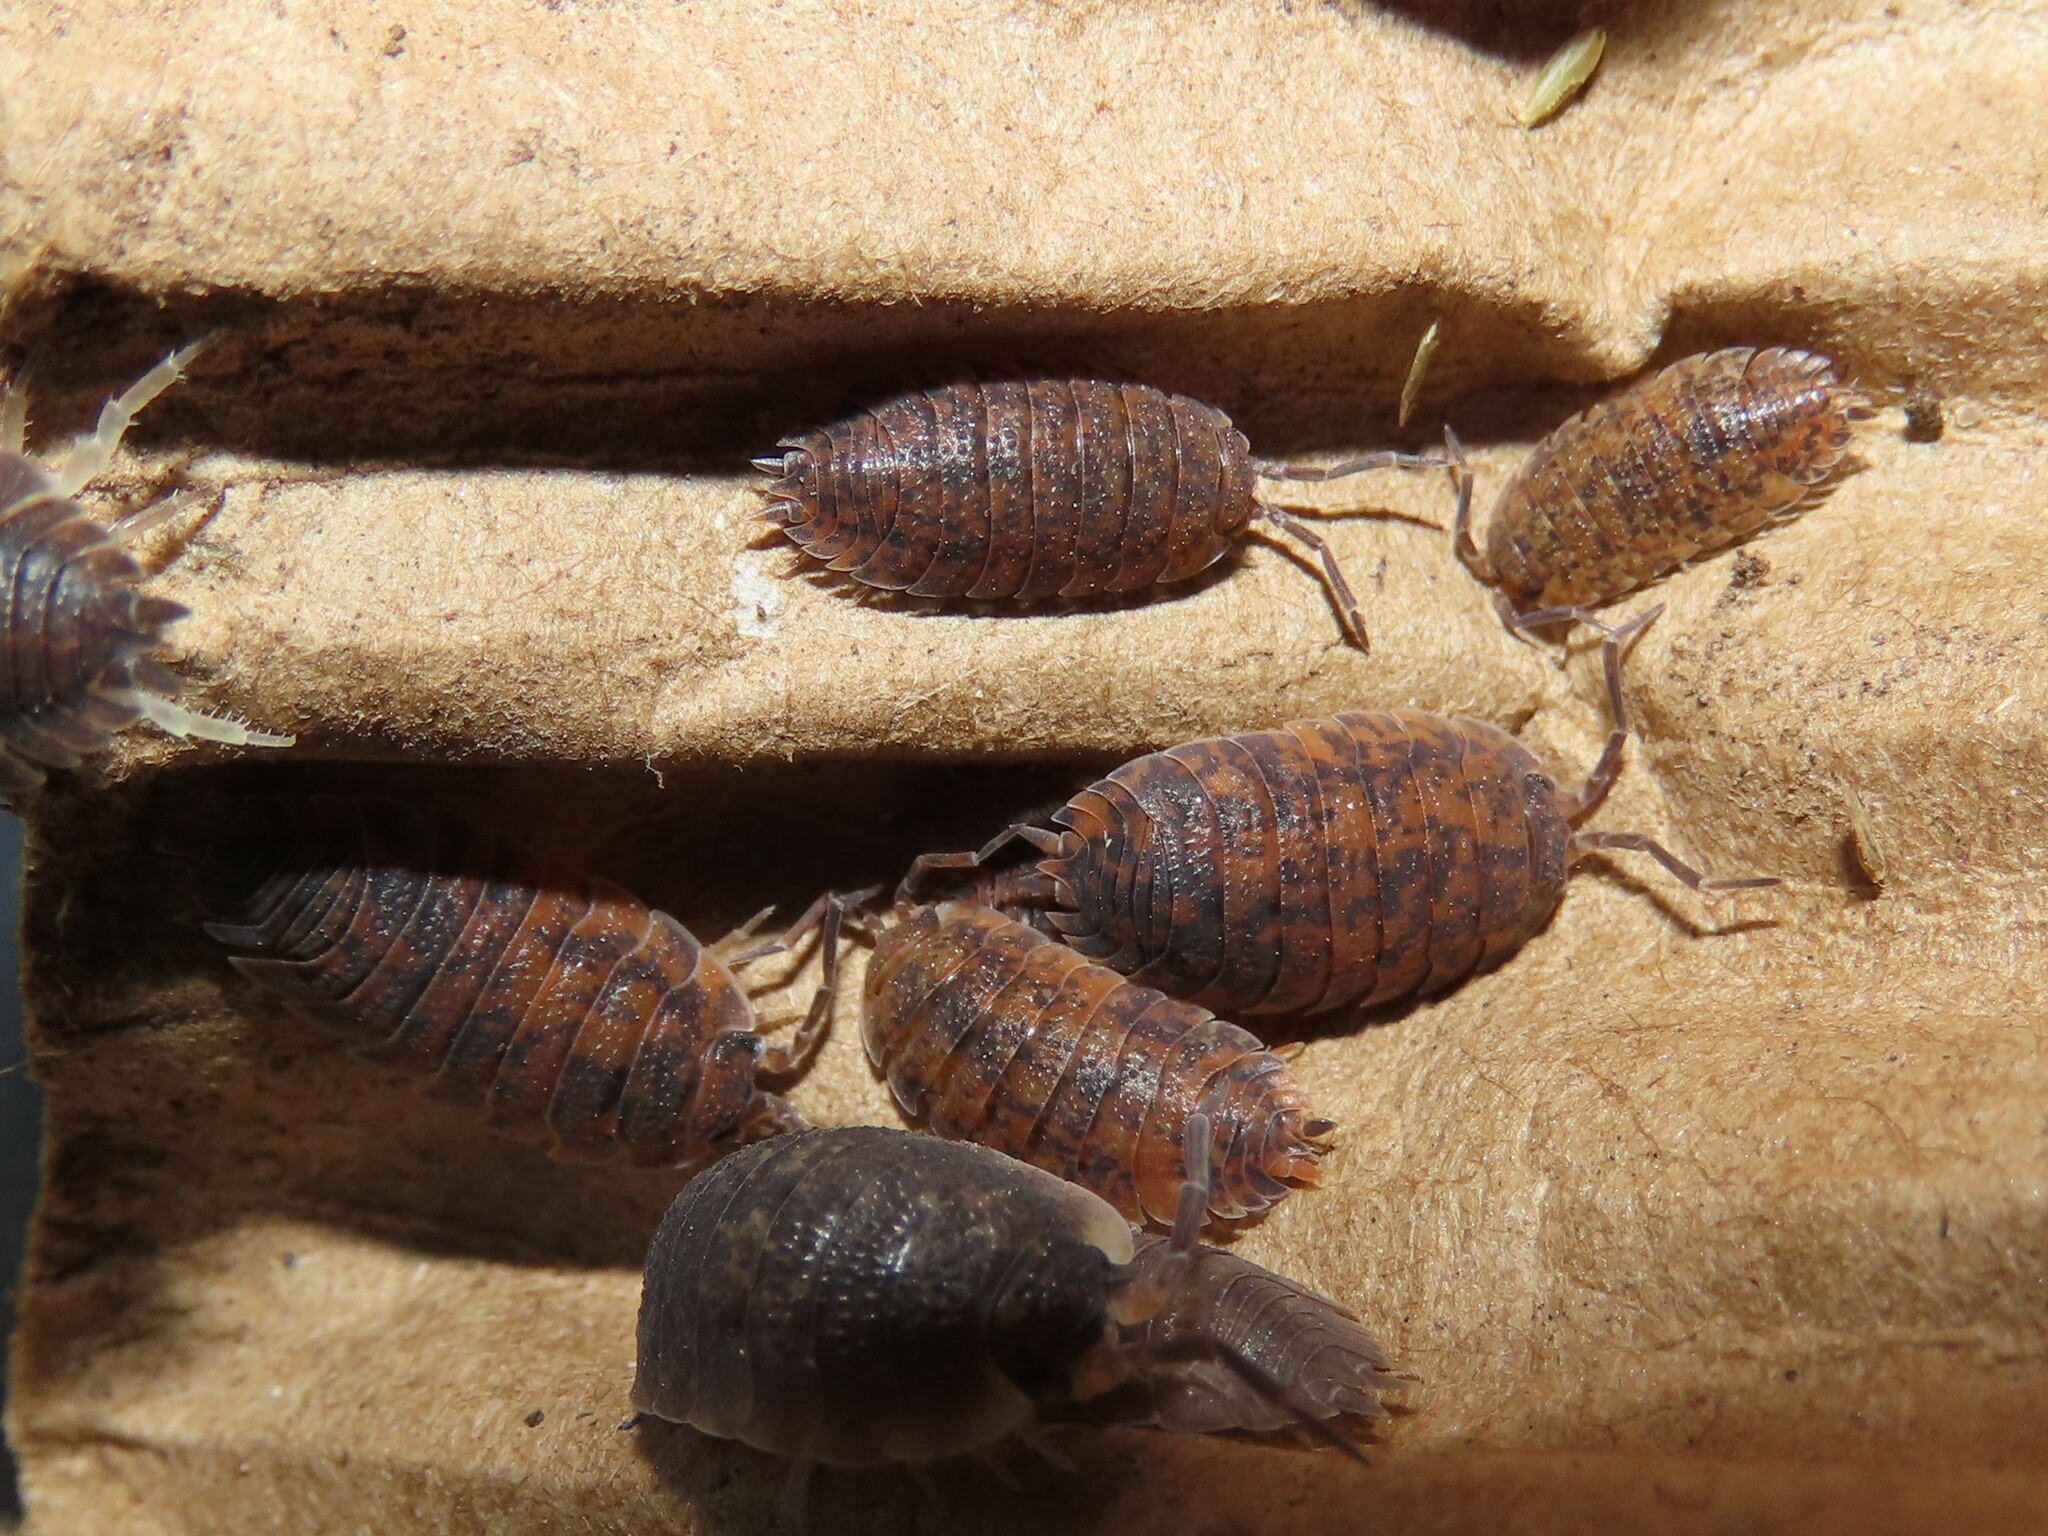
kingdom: Animalia
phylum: Arthropoda
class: Malacostraca
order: Isopoda
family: Porcellionidae
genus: Porcellio
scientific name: Porcellio scaber
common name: Common rough woodlouse
